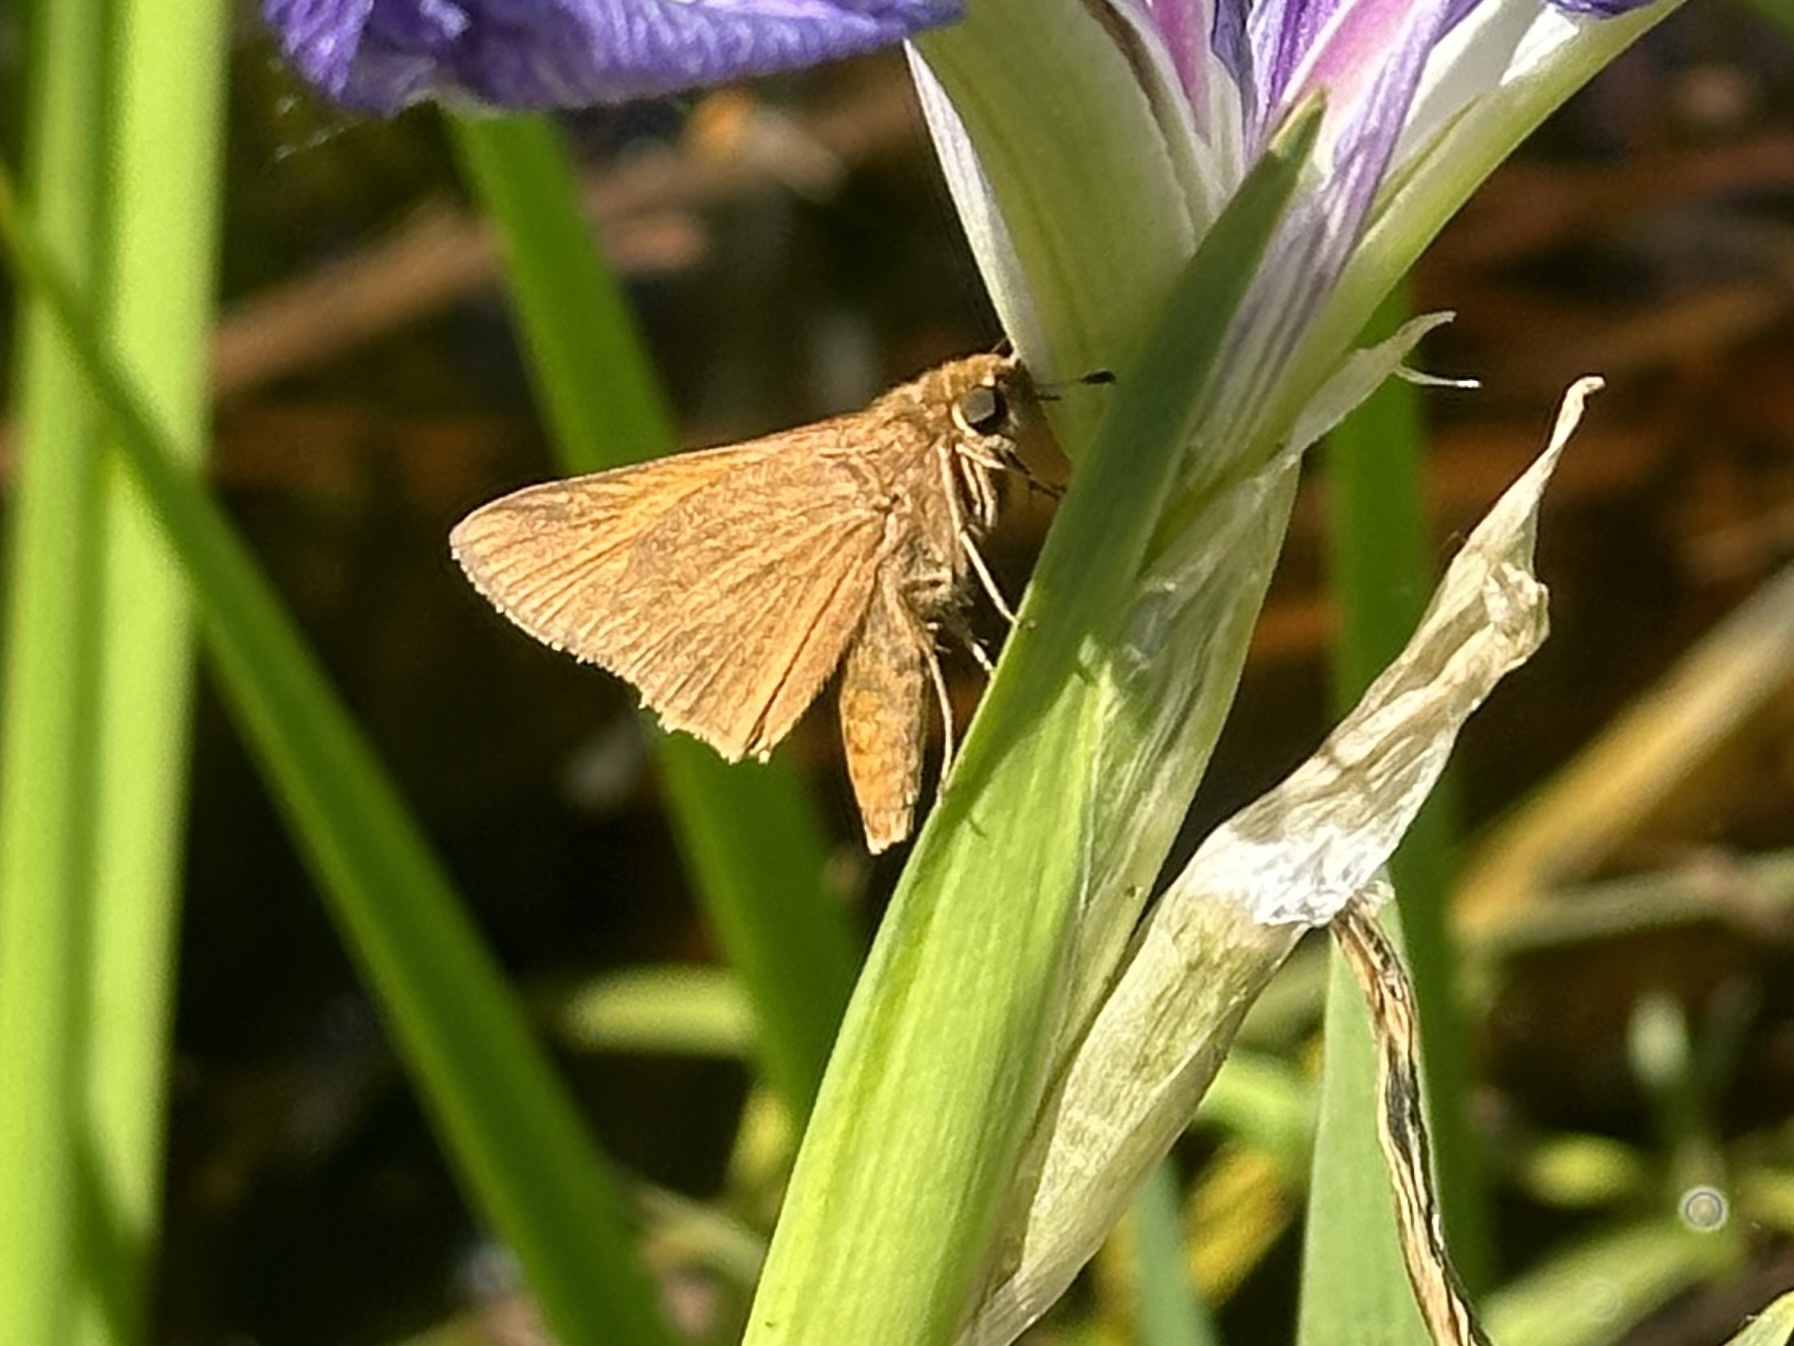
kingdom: Animalia
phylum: Arthropoda
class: Insecta
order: Lepidoptera
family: Hesperiidae
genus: Euphyes
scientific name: Euphyes pilatka
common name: Palatka skipper
